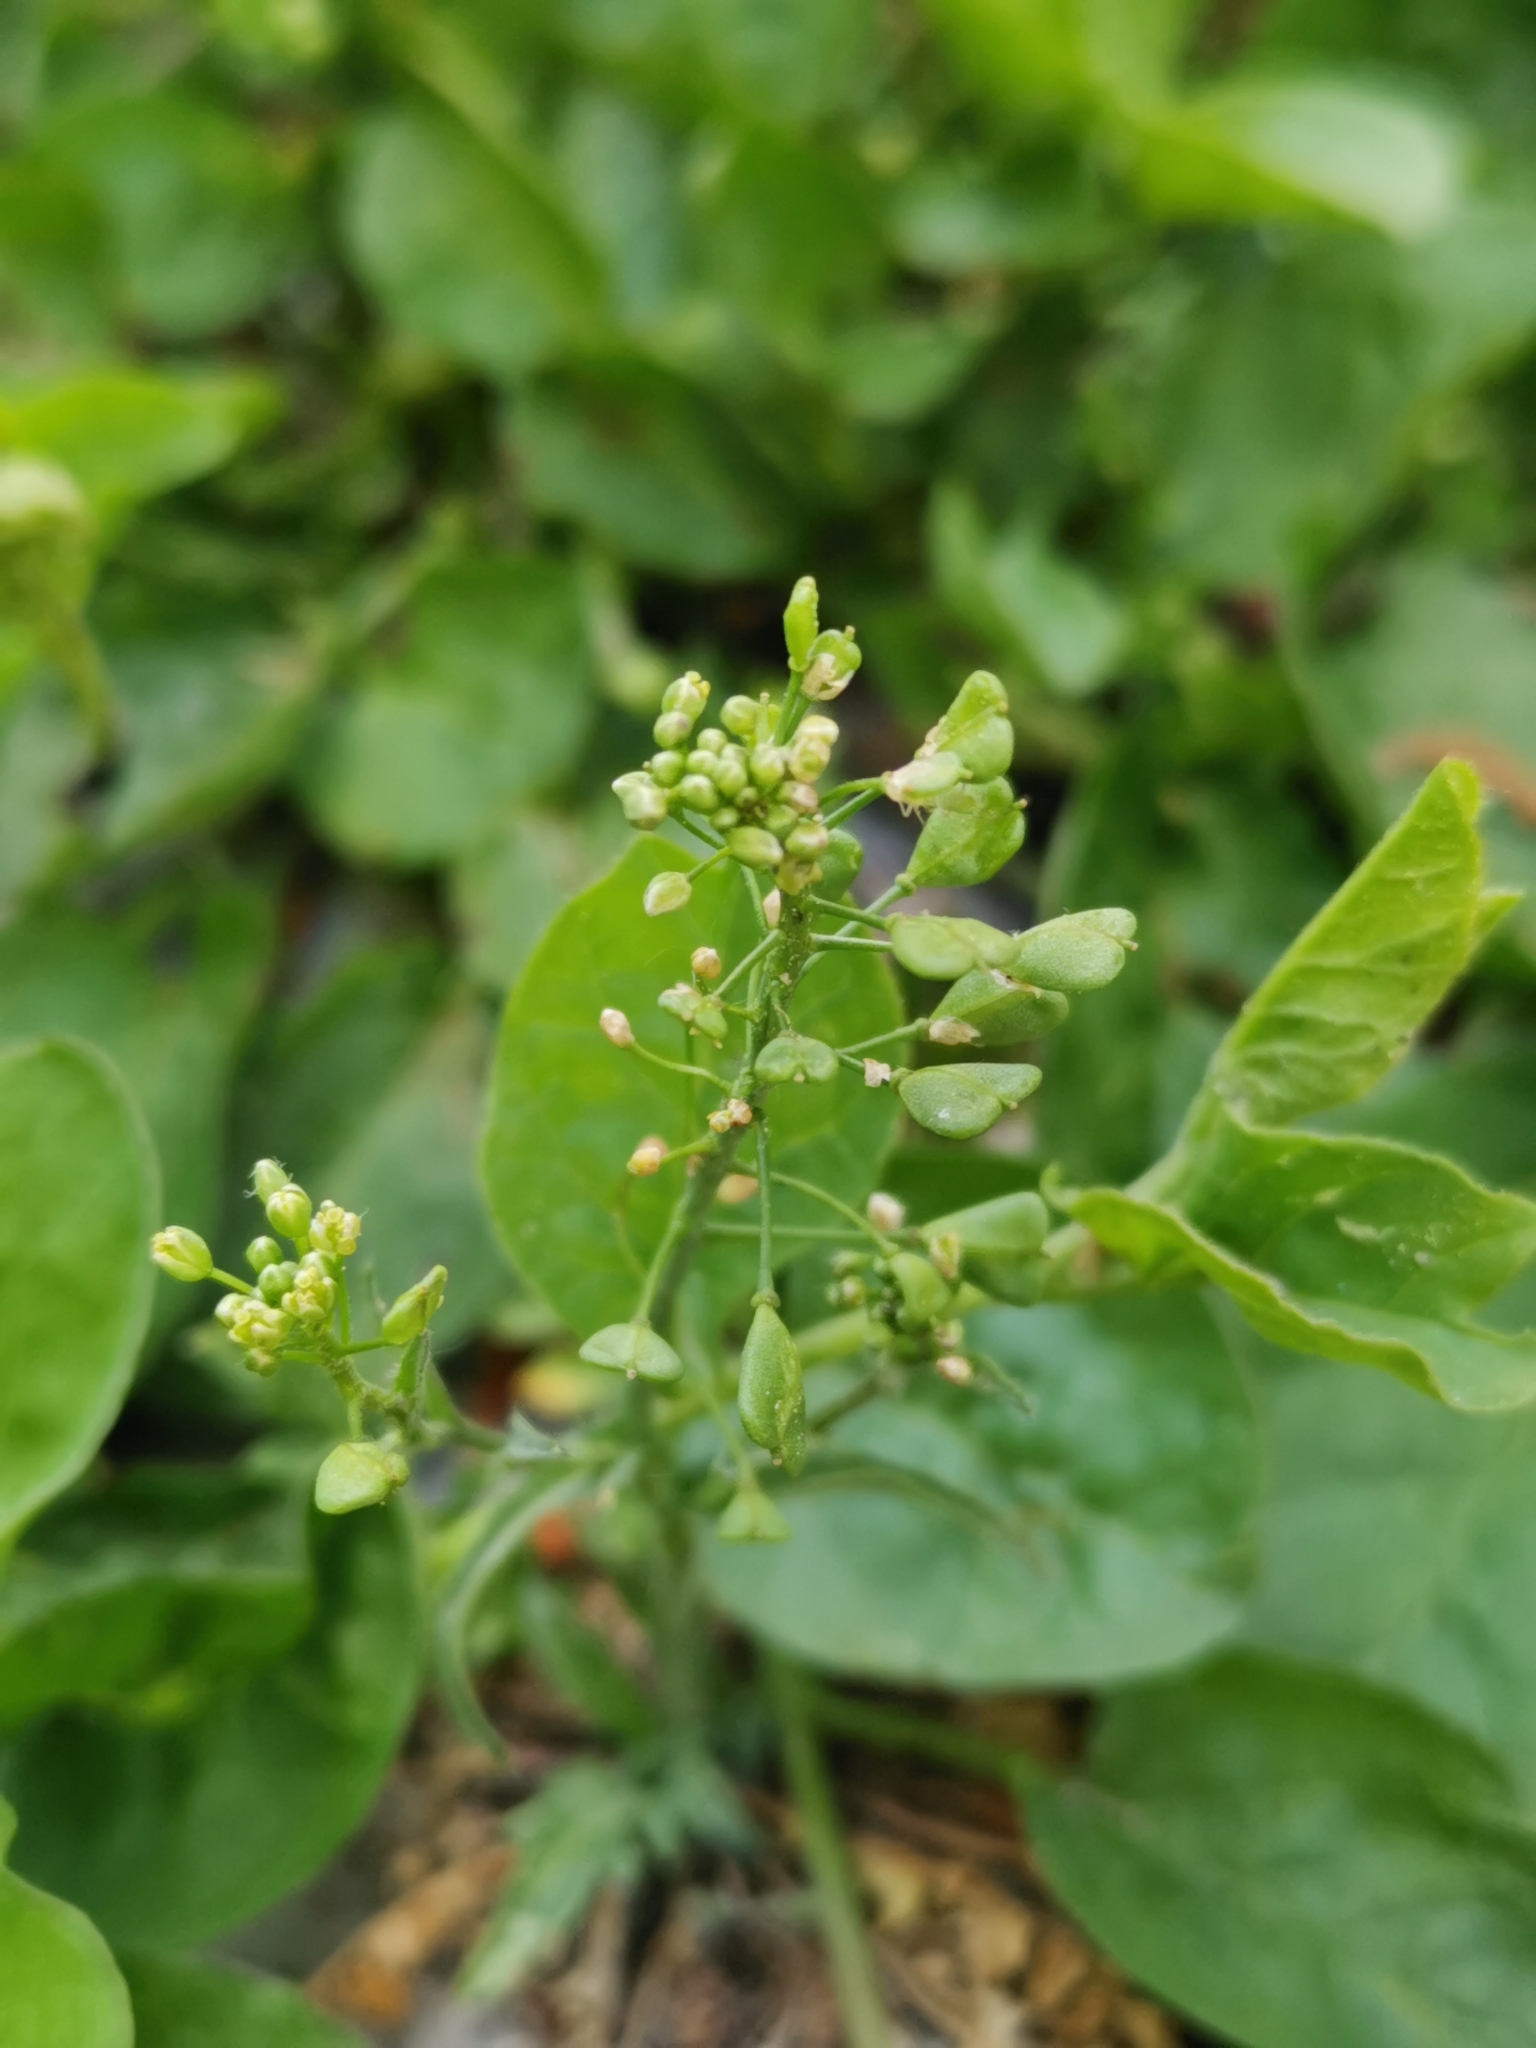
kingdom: Plantae
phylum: Tracheophyta
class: Magnoliopsida
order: Brassicales
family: Brassicaceae
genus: Capsella
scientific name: Capsella bursa-pastoris
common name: Shepherd's purse
